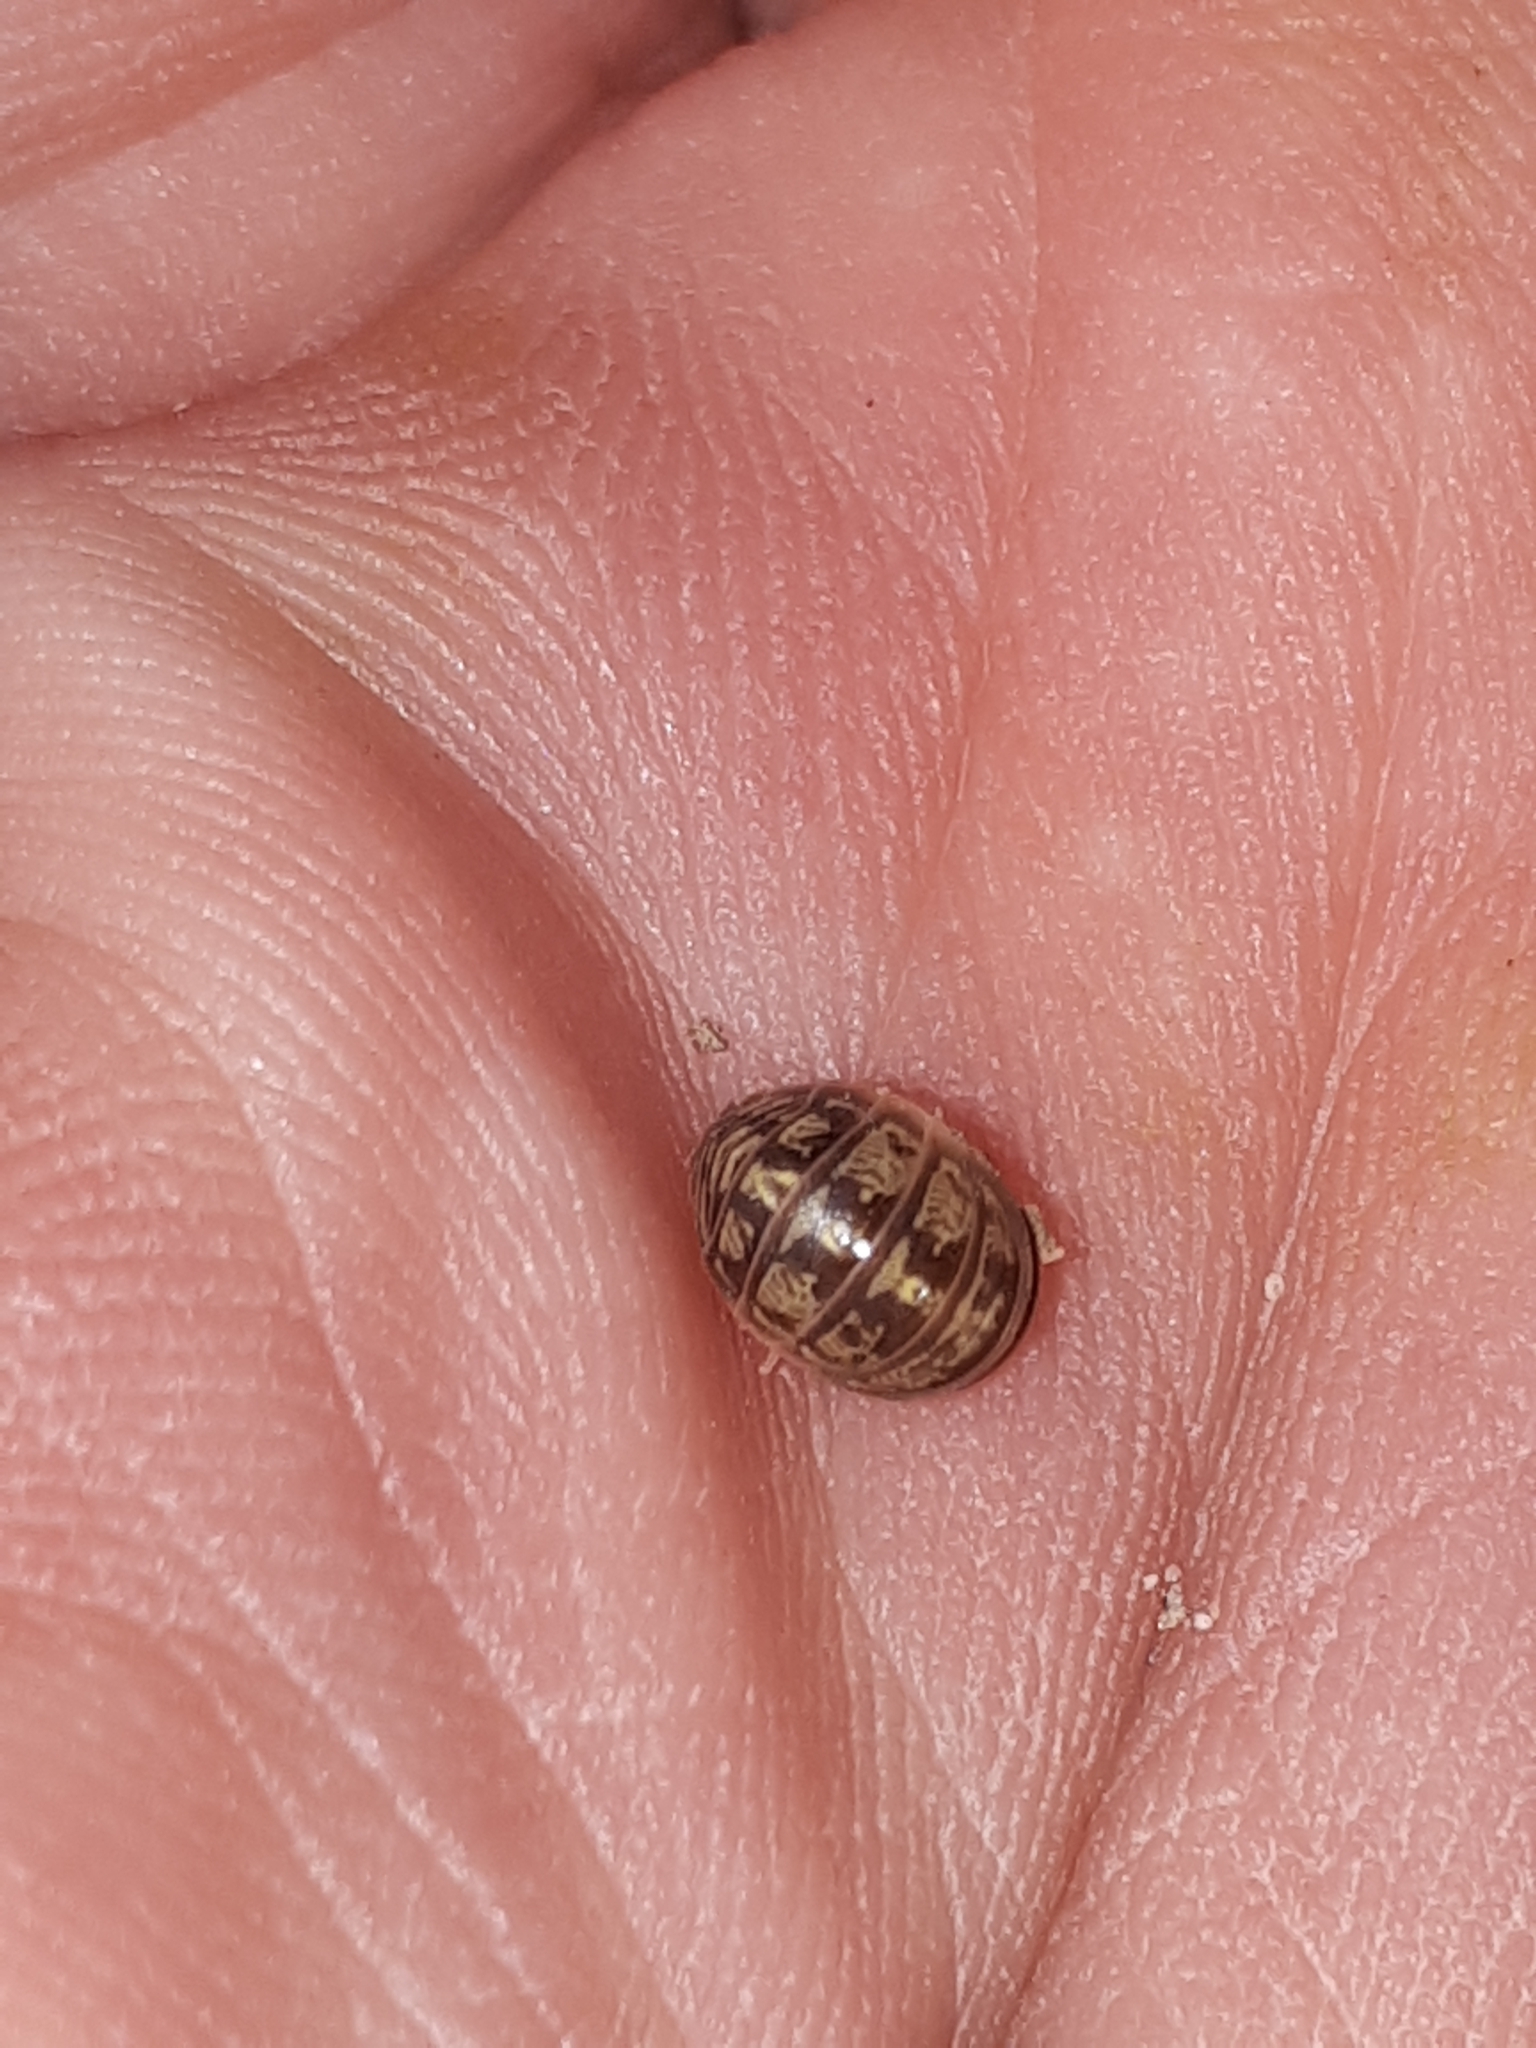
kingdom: Animalia
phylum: Arthropoda
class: Malacostraca
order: Isopoda
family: Armadillidiidae
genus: Armadillidium
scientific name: Armadillidium versicolor
